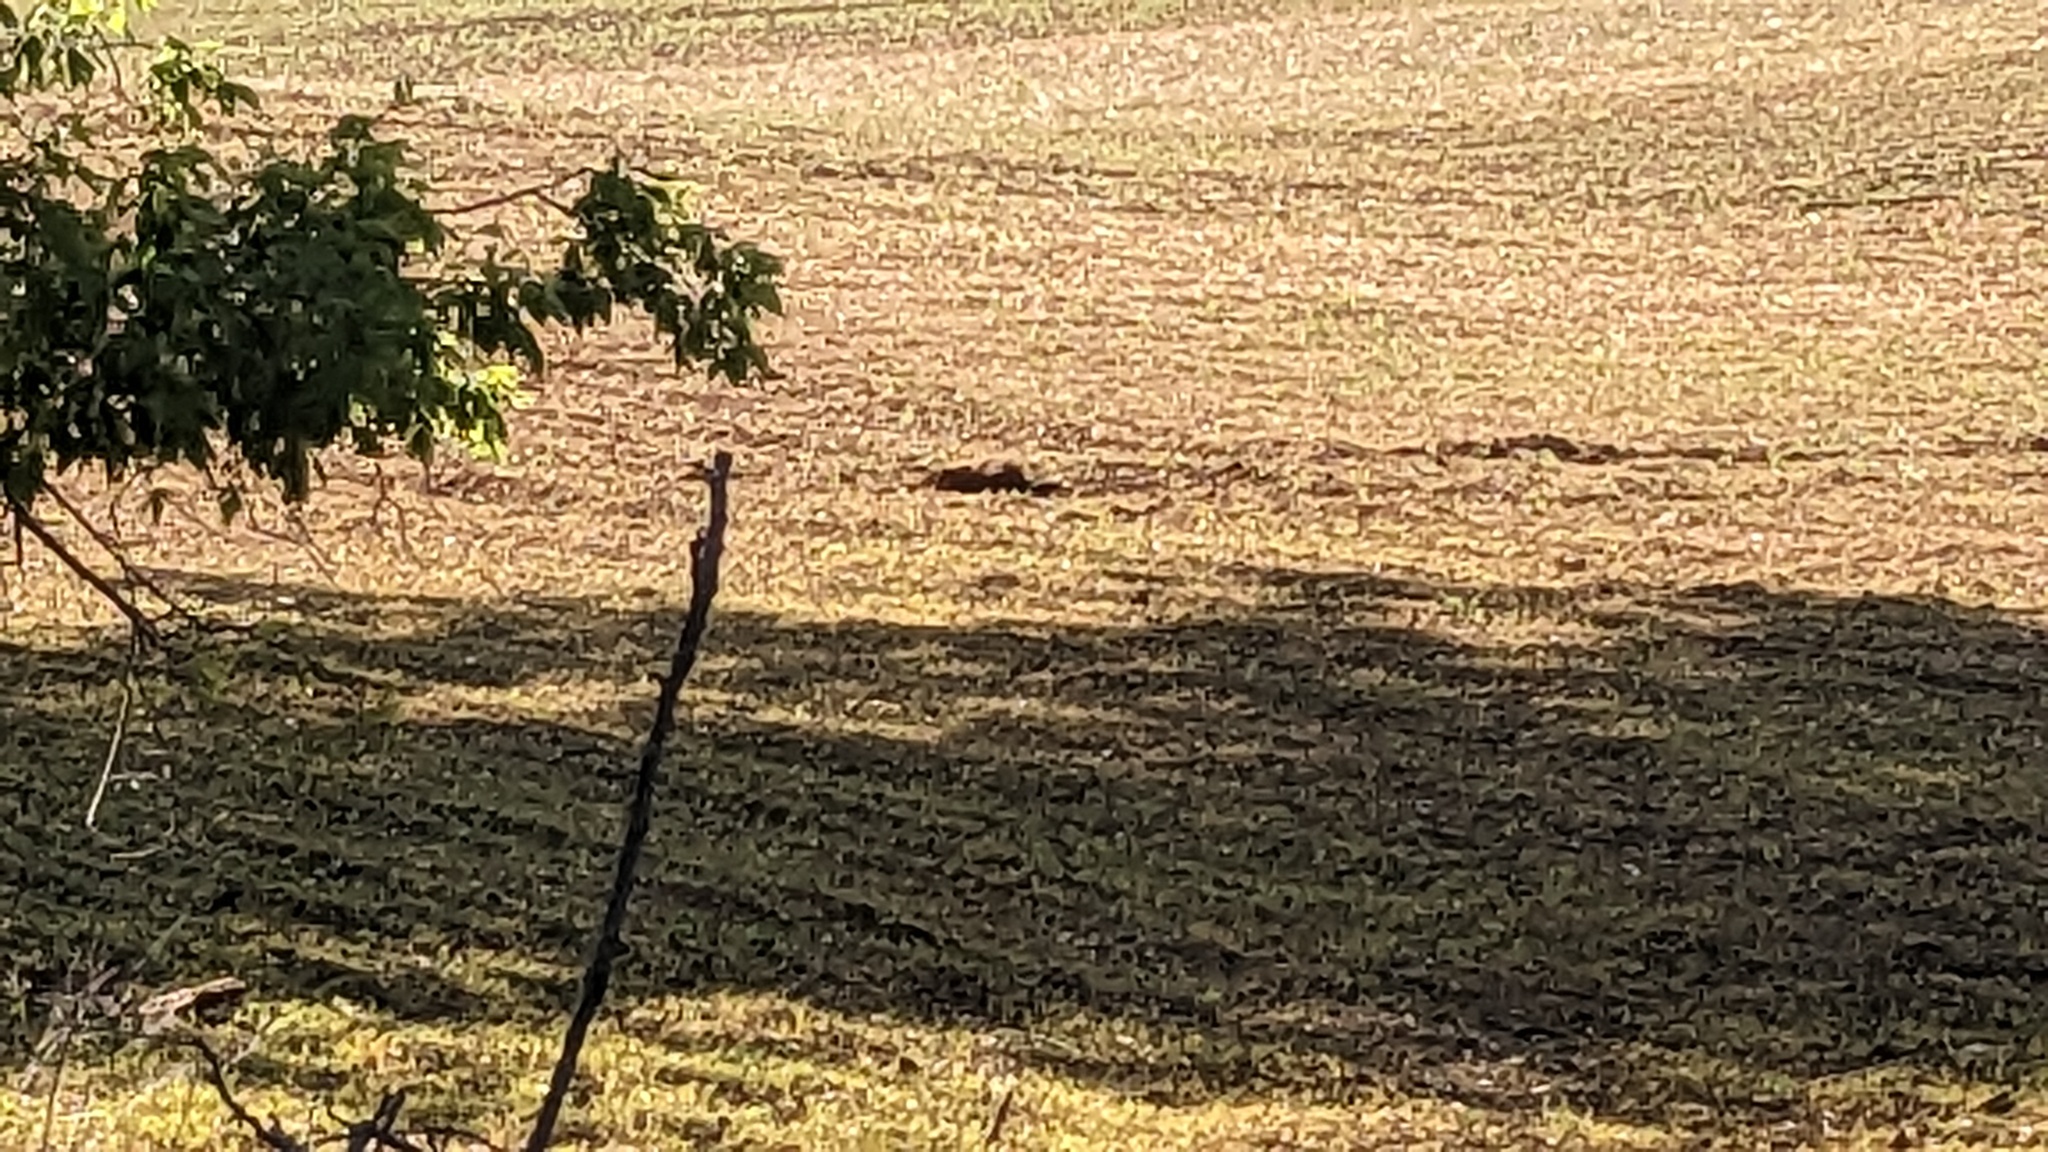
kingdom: Animalia
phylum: Chordata
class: Mammalia
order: Rodentia
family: Sciuridae
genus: Marmota
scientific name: Marmota monax
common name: Groundhog
